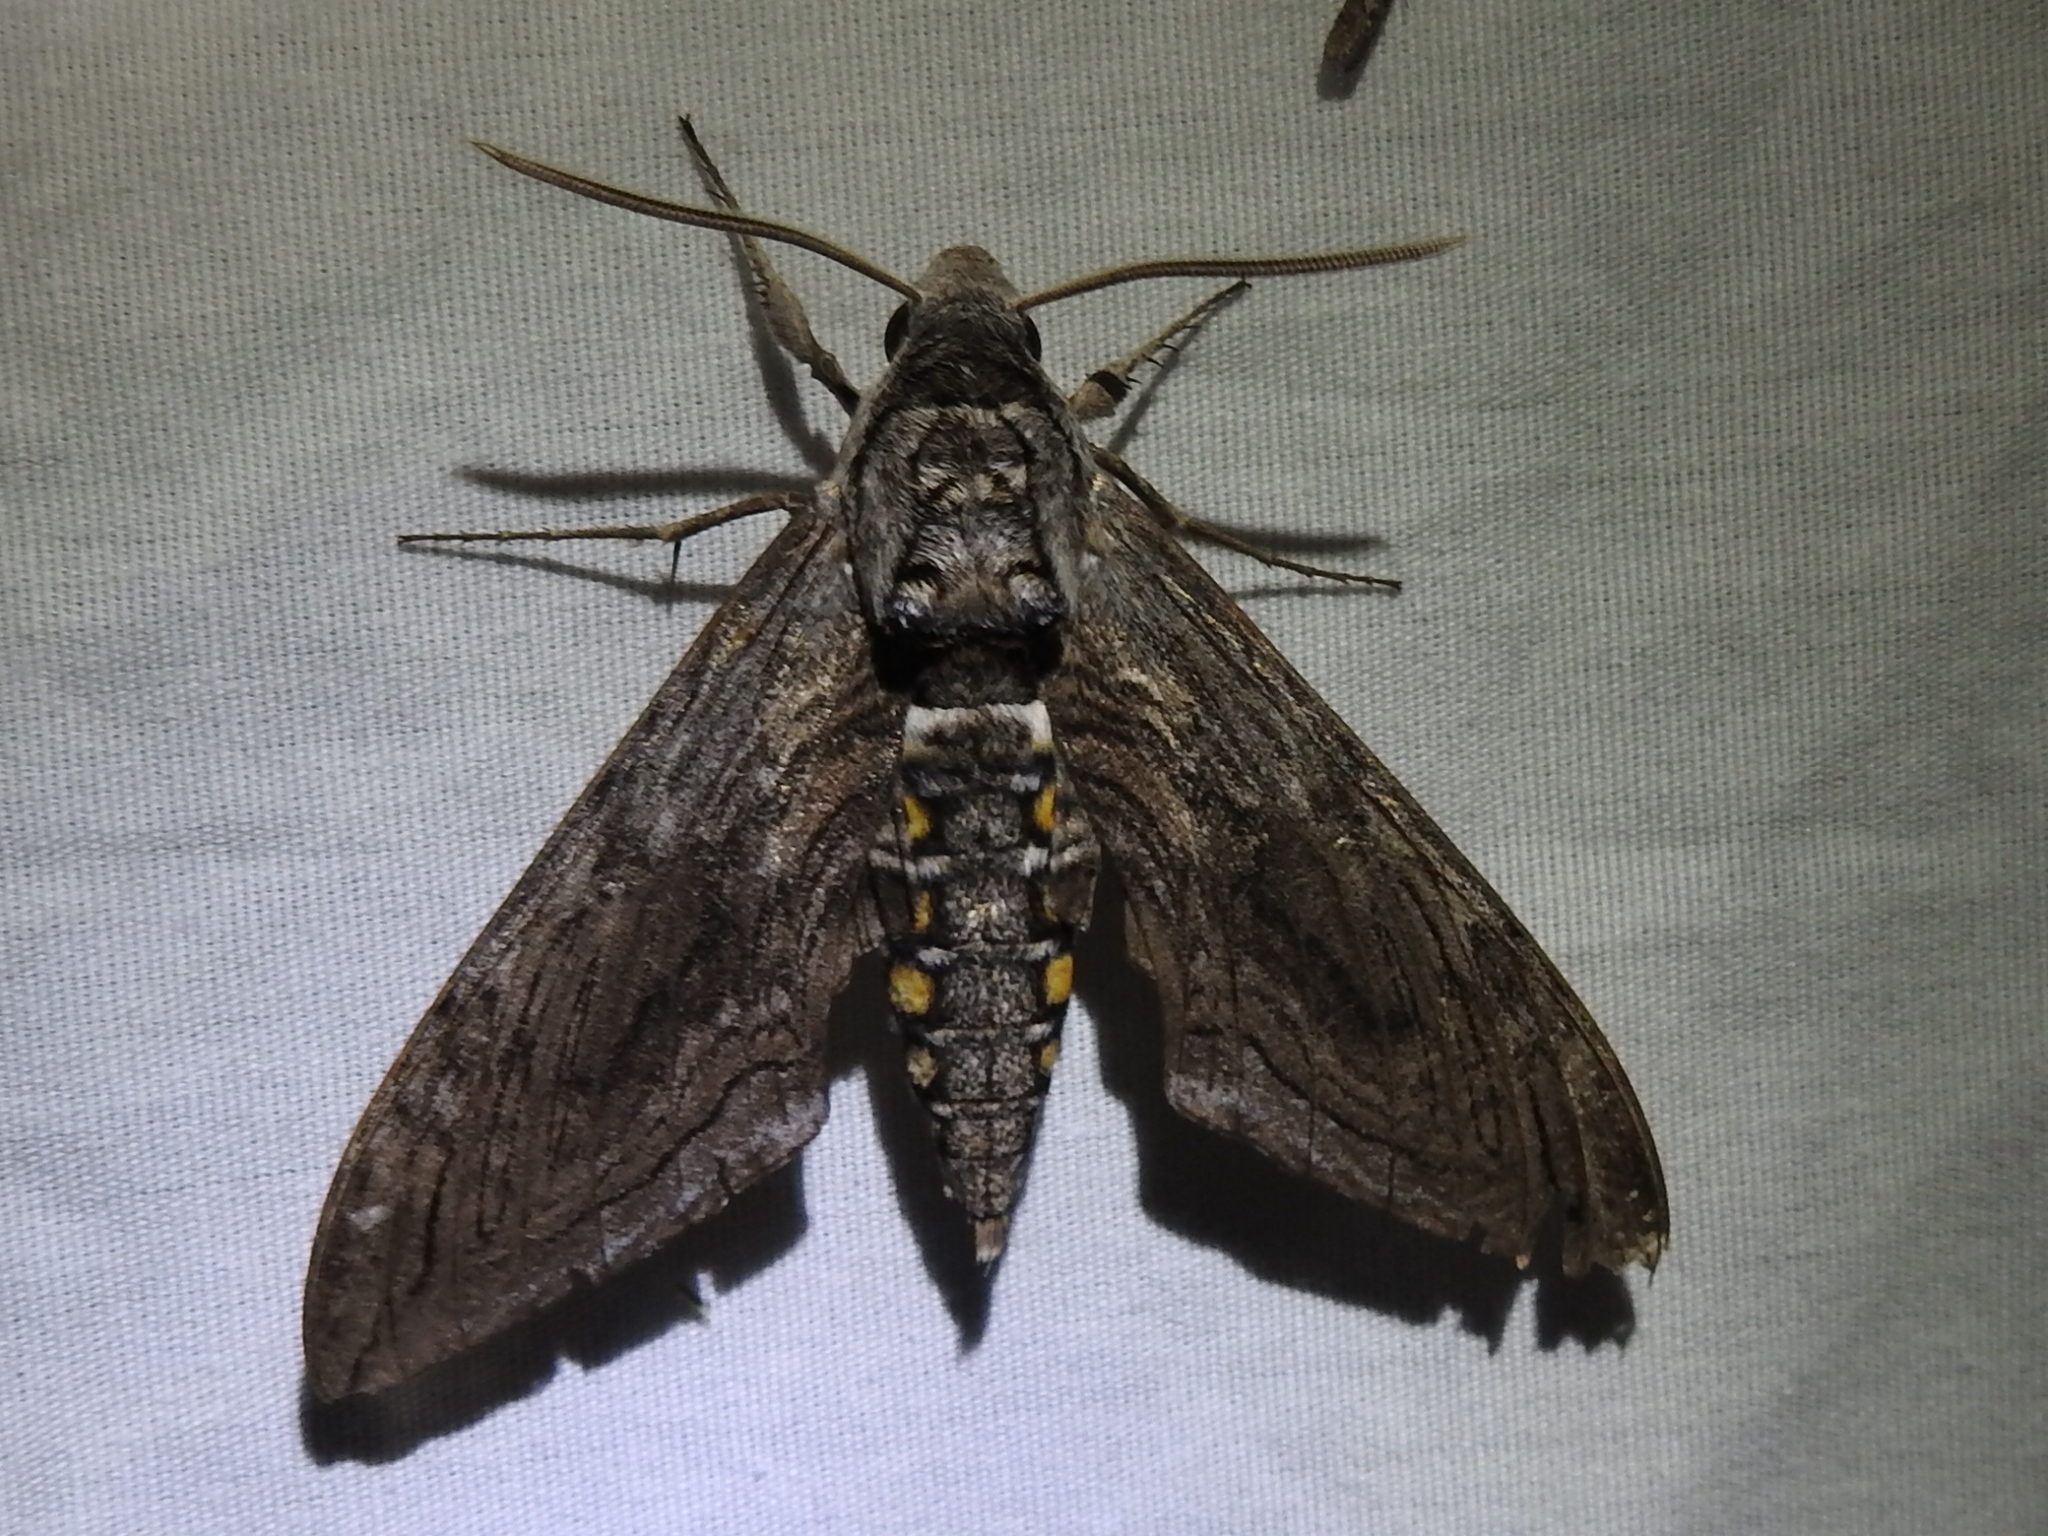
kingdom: Animalia
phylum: Arthropoda
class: Insecta
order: Lepidoptera
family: Sphingidae
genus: Manduca
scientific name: Manduca quinquemaculatus
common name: Five-spotted hawk-moth
